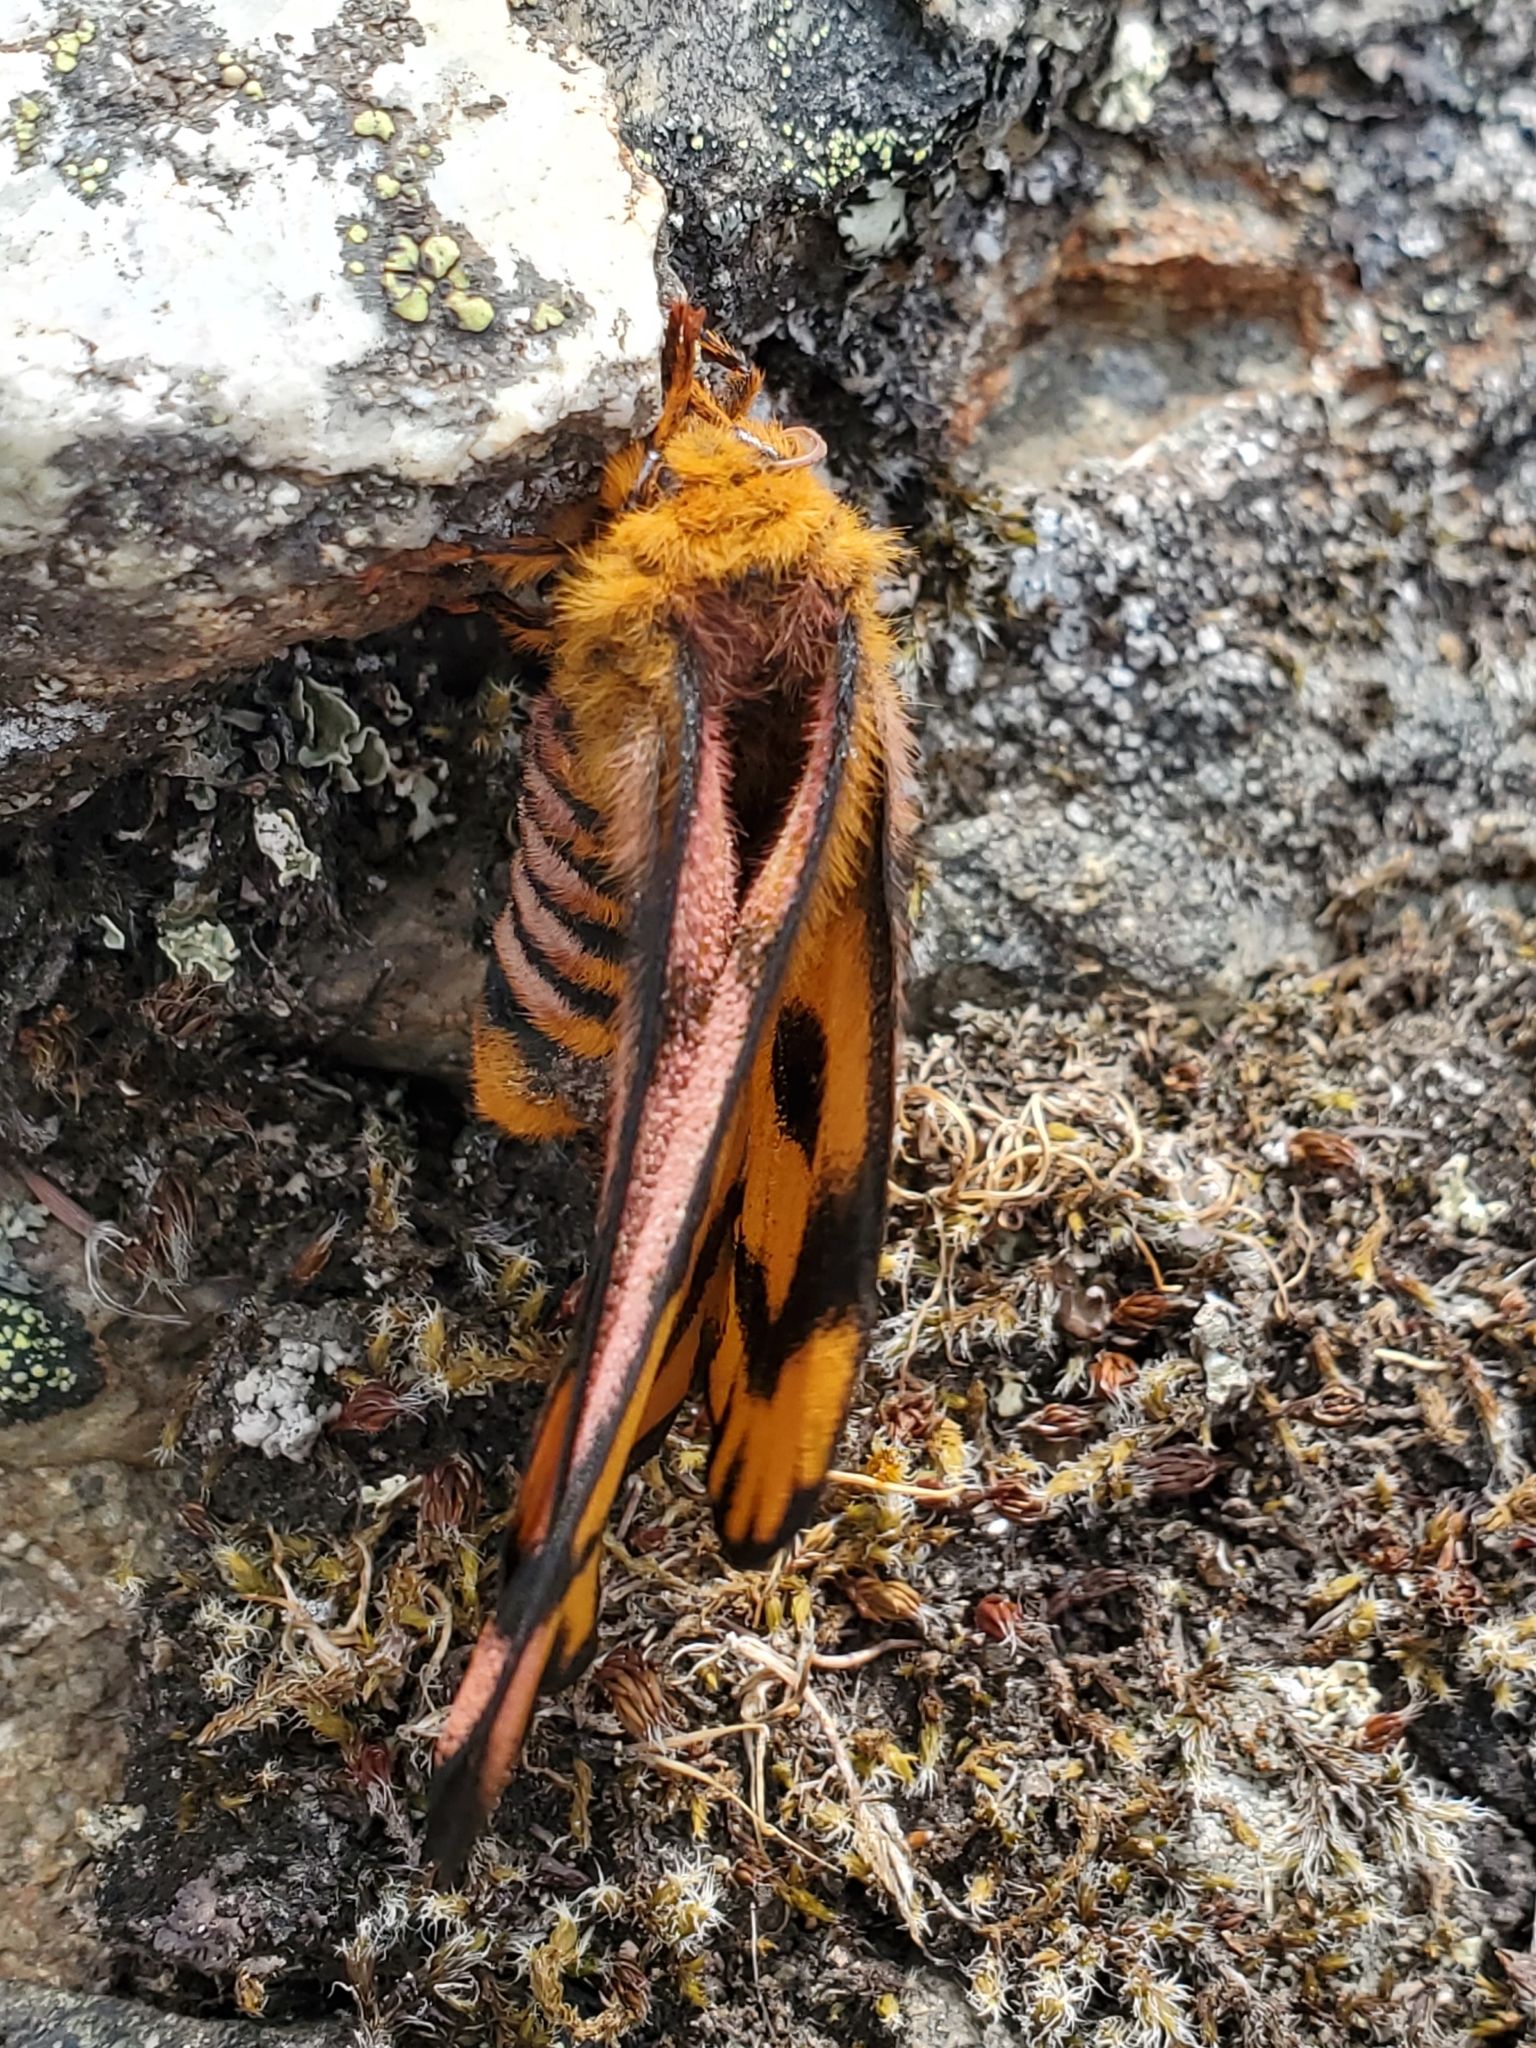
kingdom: Animalia
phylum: Arthropoda
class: Insecta
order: Lepidoptera
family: Saturniidae
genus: Hemileuca
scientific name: Hemileuca eglanterina
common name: Western sheepmoth
